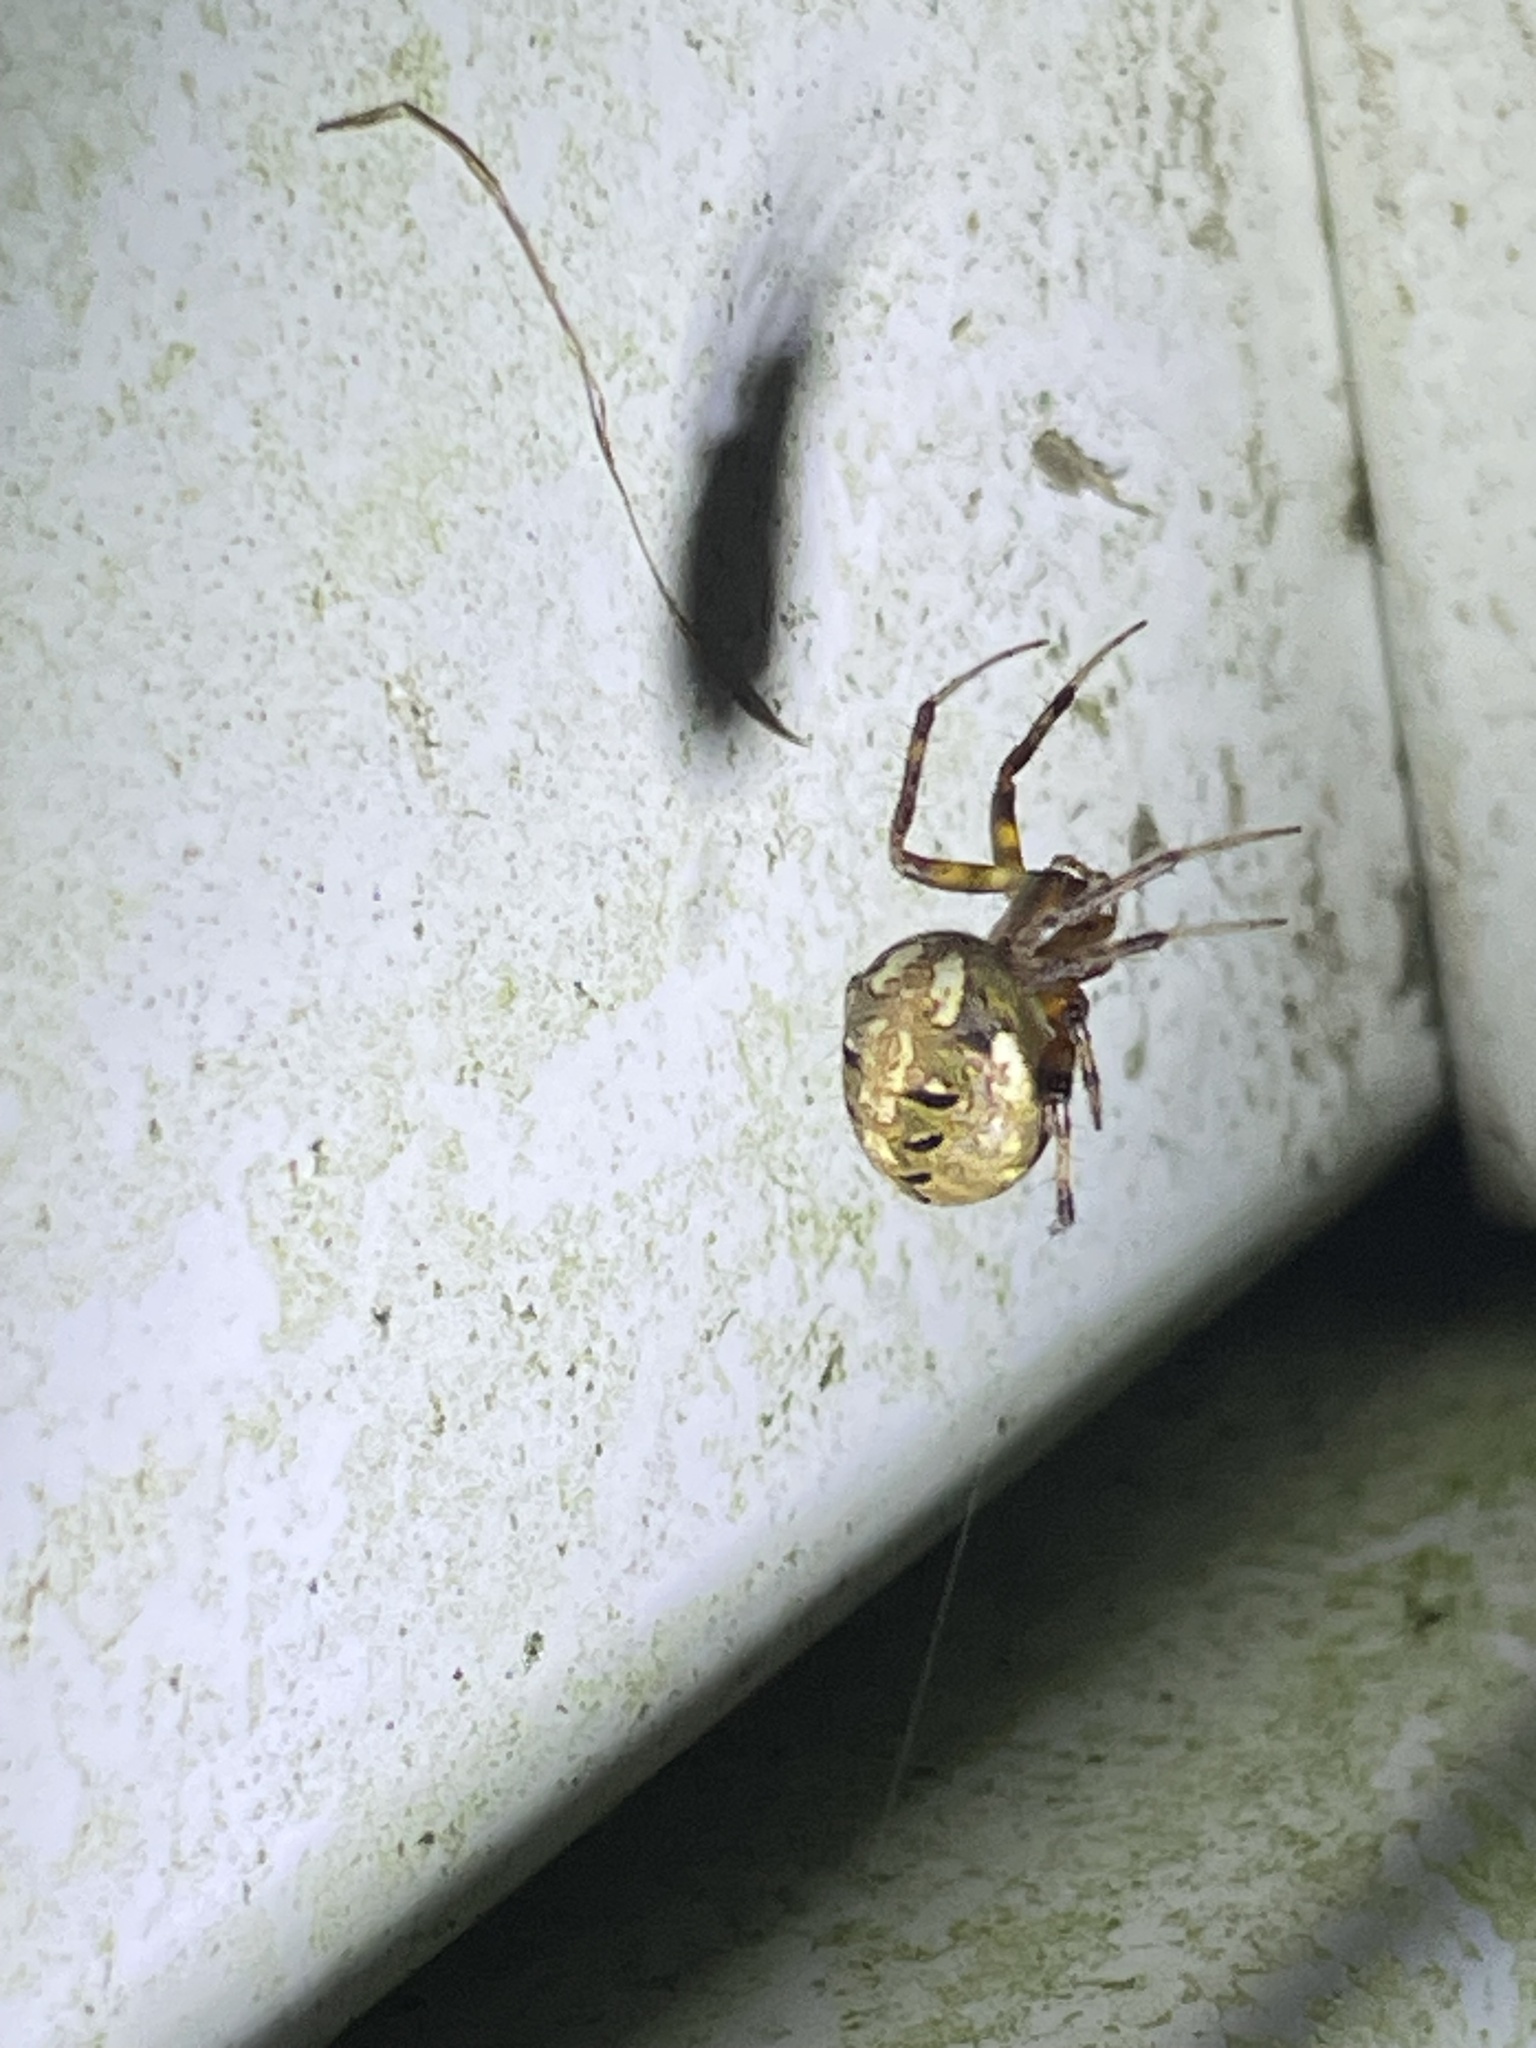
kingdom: Animalia
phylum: Arthropoda
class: Arachnida
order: Araneae
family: Araneidae
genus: Neoscona
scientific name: Neoscona arabesca
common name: Orb weavers
